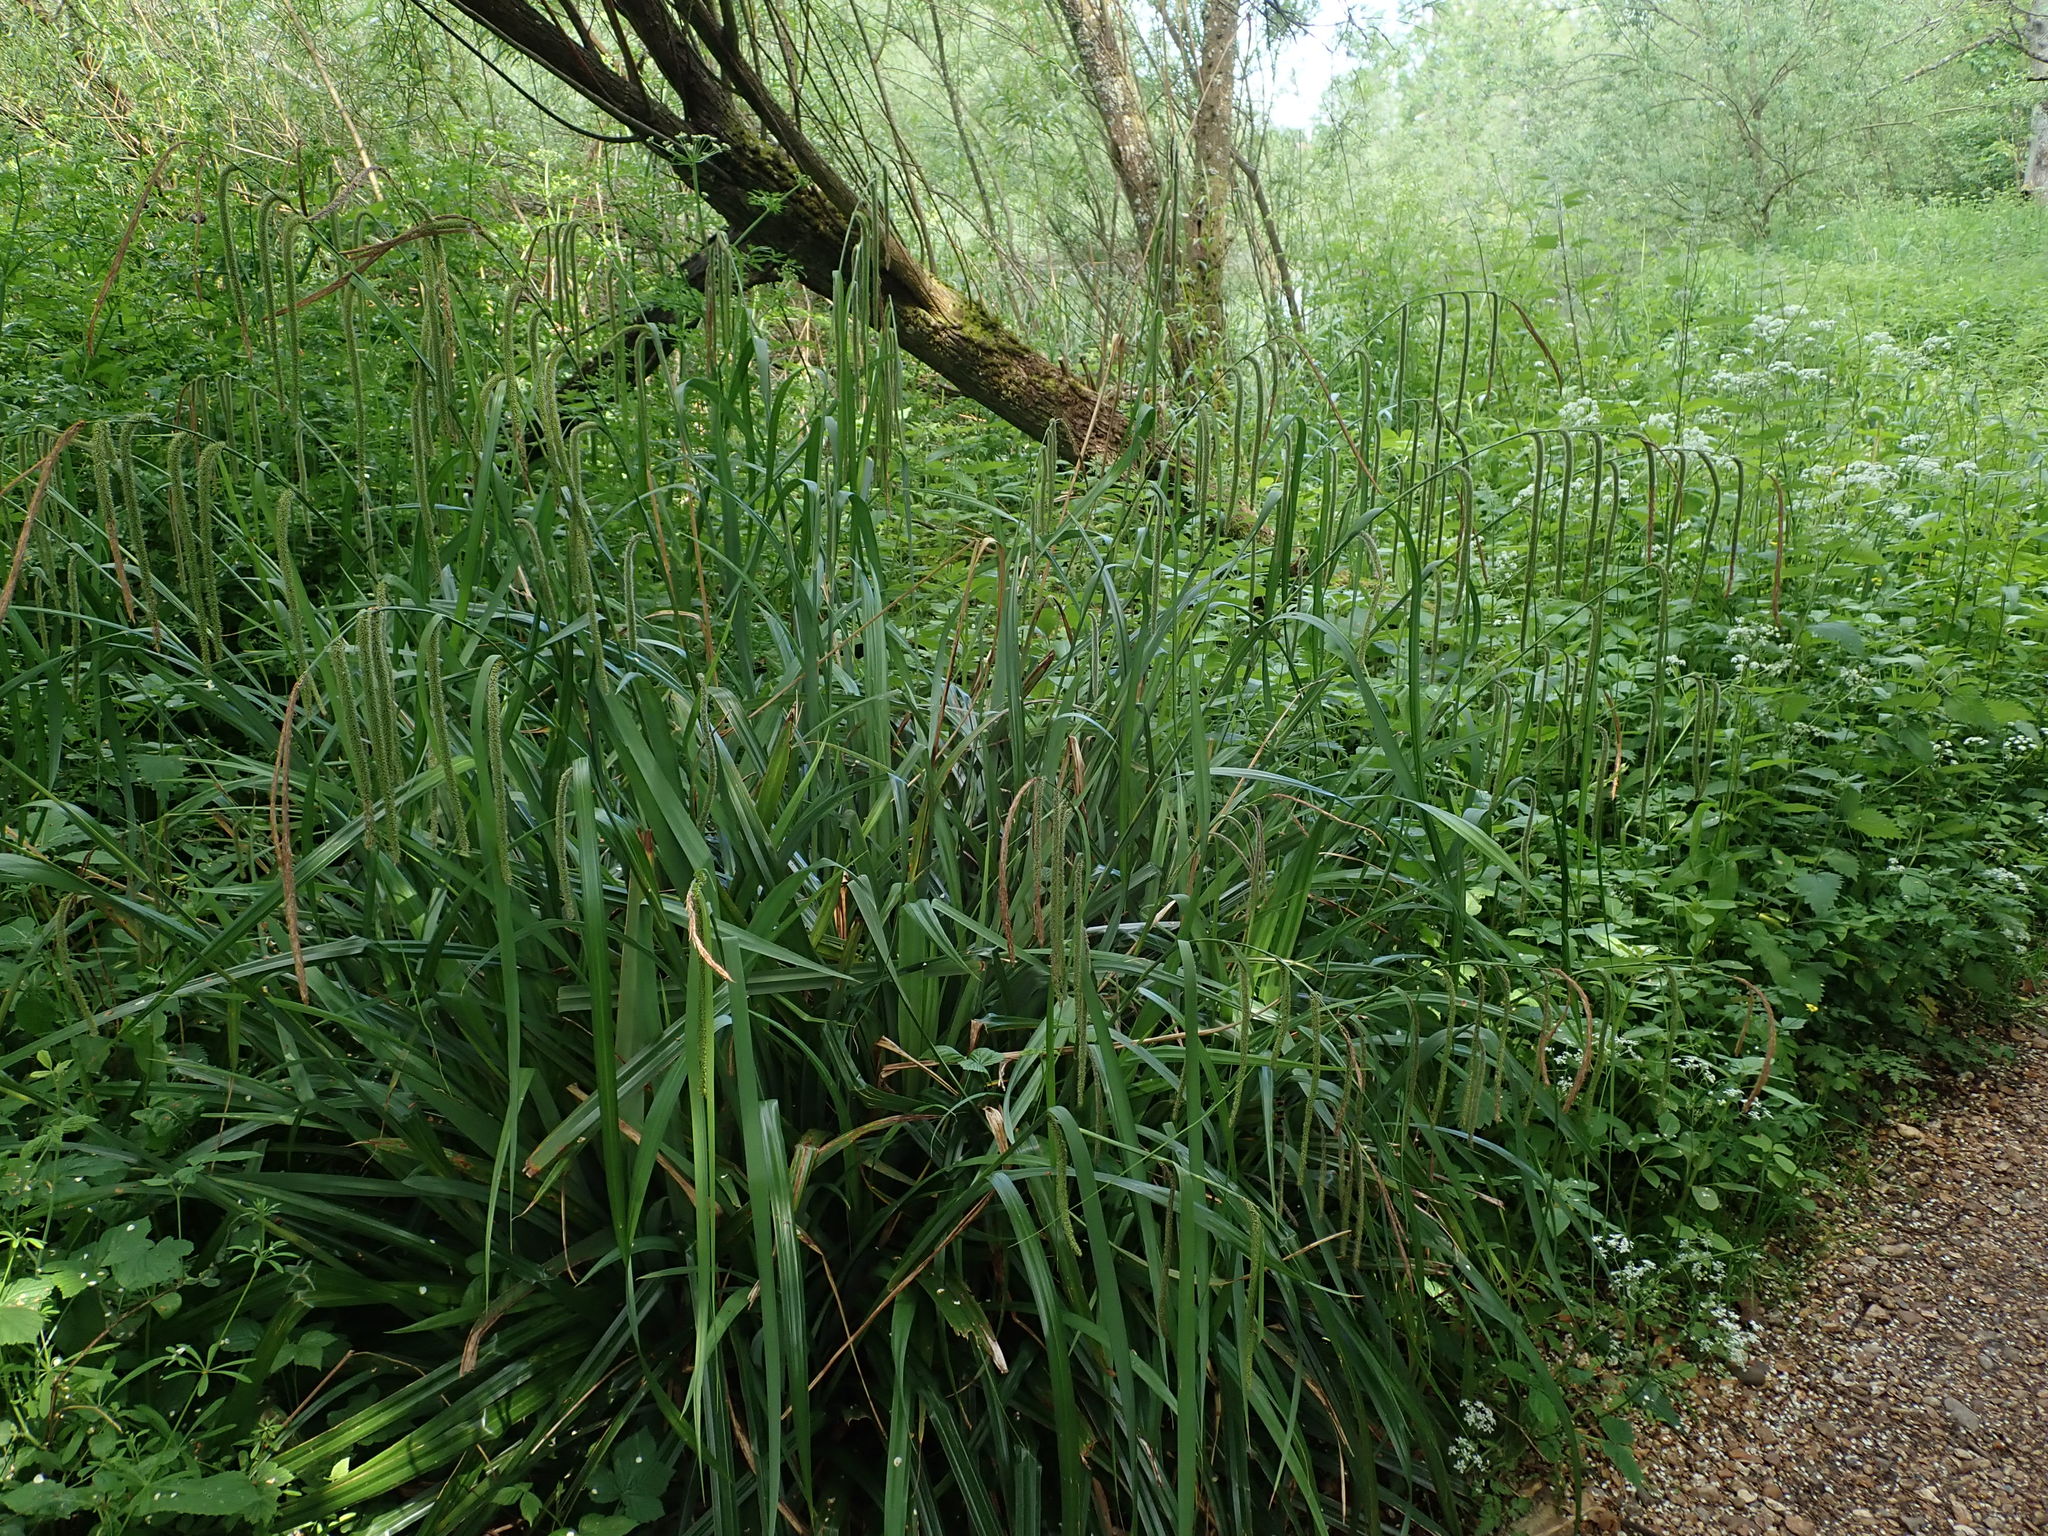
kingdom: Plantae
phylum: Tracheophyta
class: Liliopsida
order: Poales
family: Cyperaceae
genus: Carex
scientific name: Carex pendula
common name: Pendulous sedge
